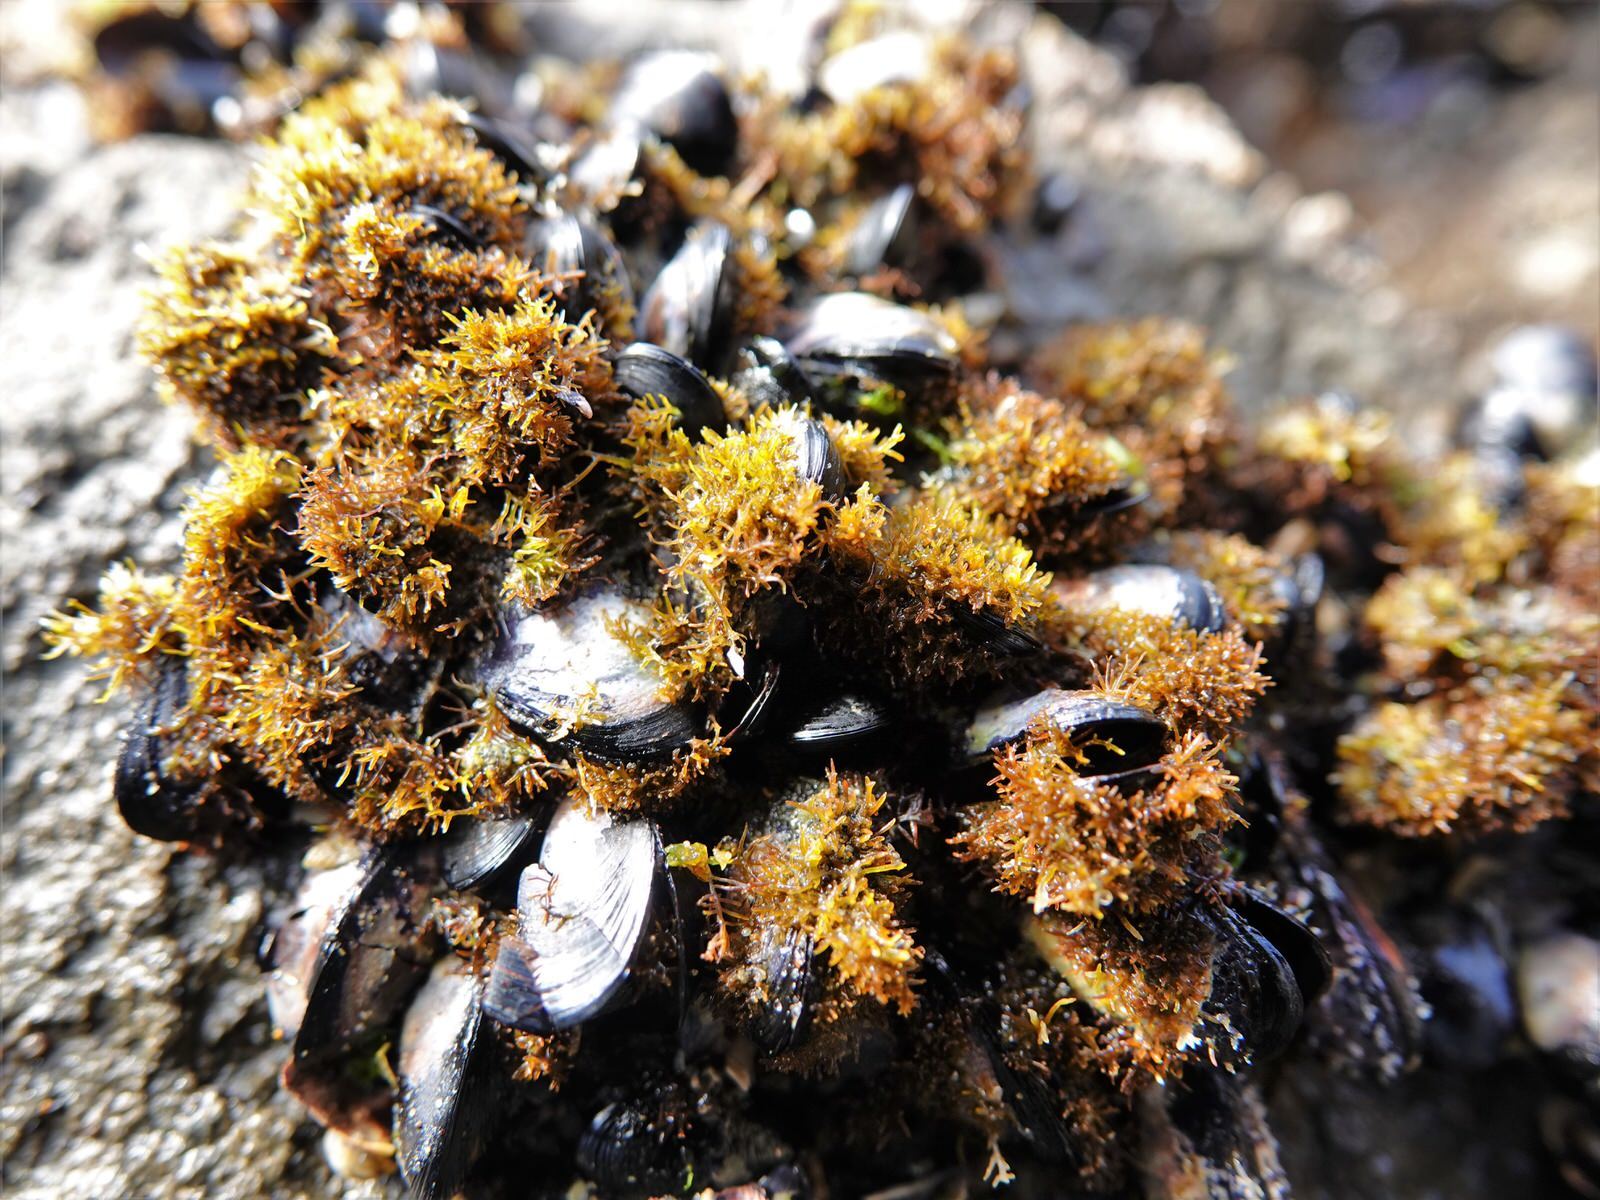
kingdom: Plantae
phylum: Rhodophyta
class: Florideophyceae
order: Gelidiales
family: Gelidiaceae
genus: Capreolia
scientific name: Capreolia implexa
